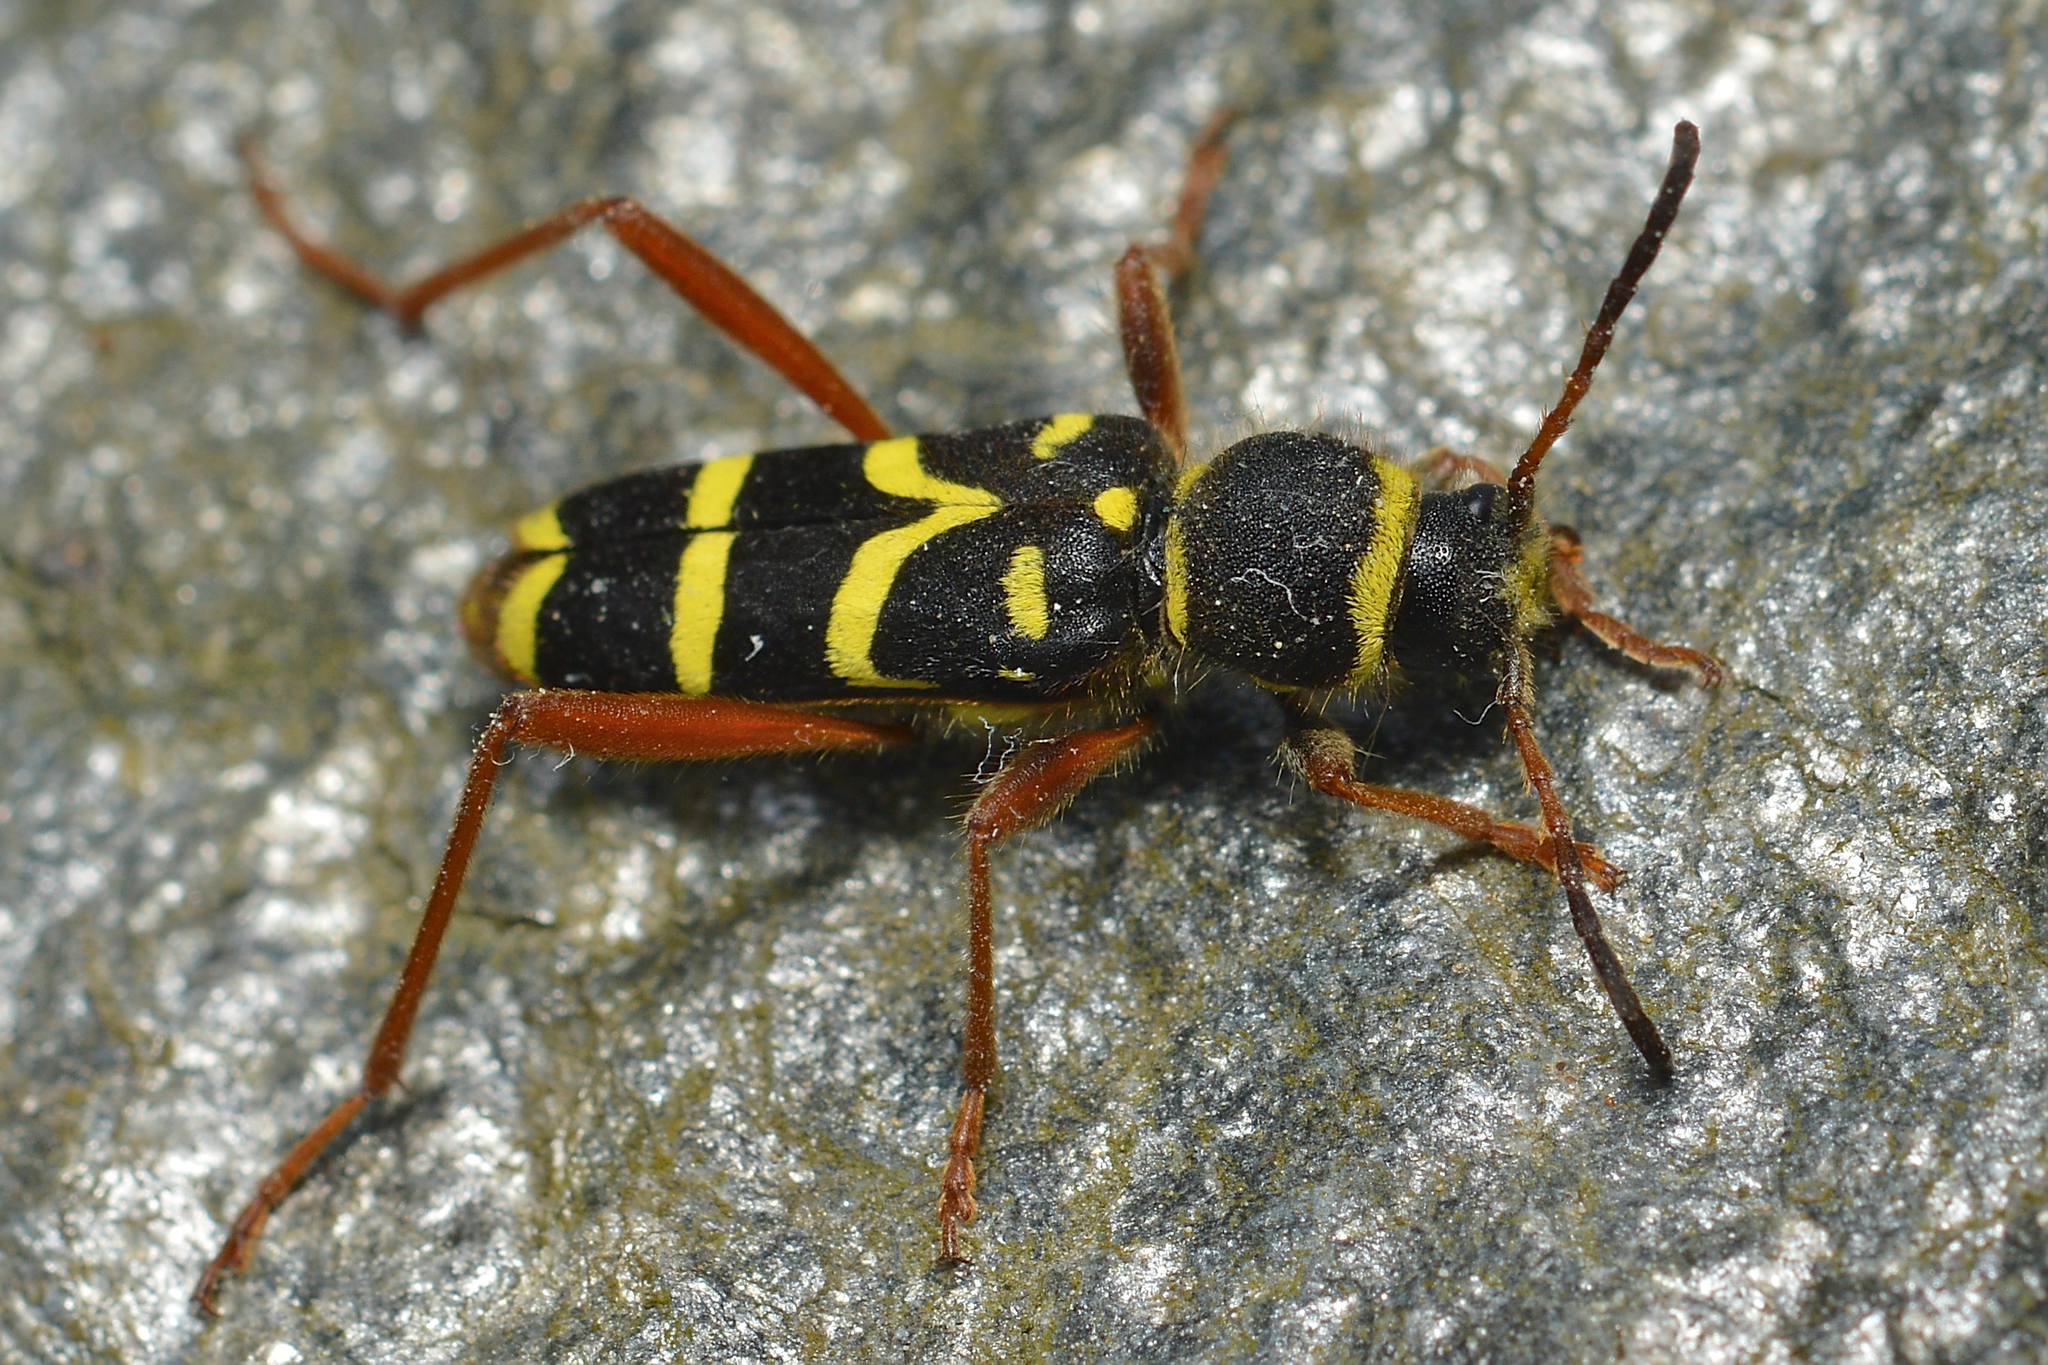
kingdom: Animalia
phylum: Arthropoda
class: Insecta
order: Coleoptera
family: Cerambycidae
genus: Clytus
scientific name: Clytus arietis
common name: Wasp beetle
